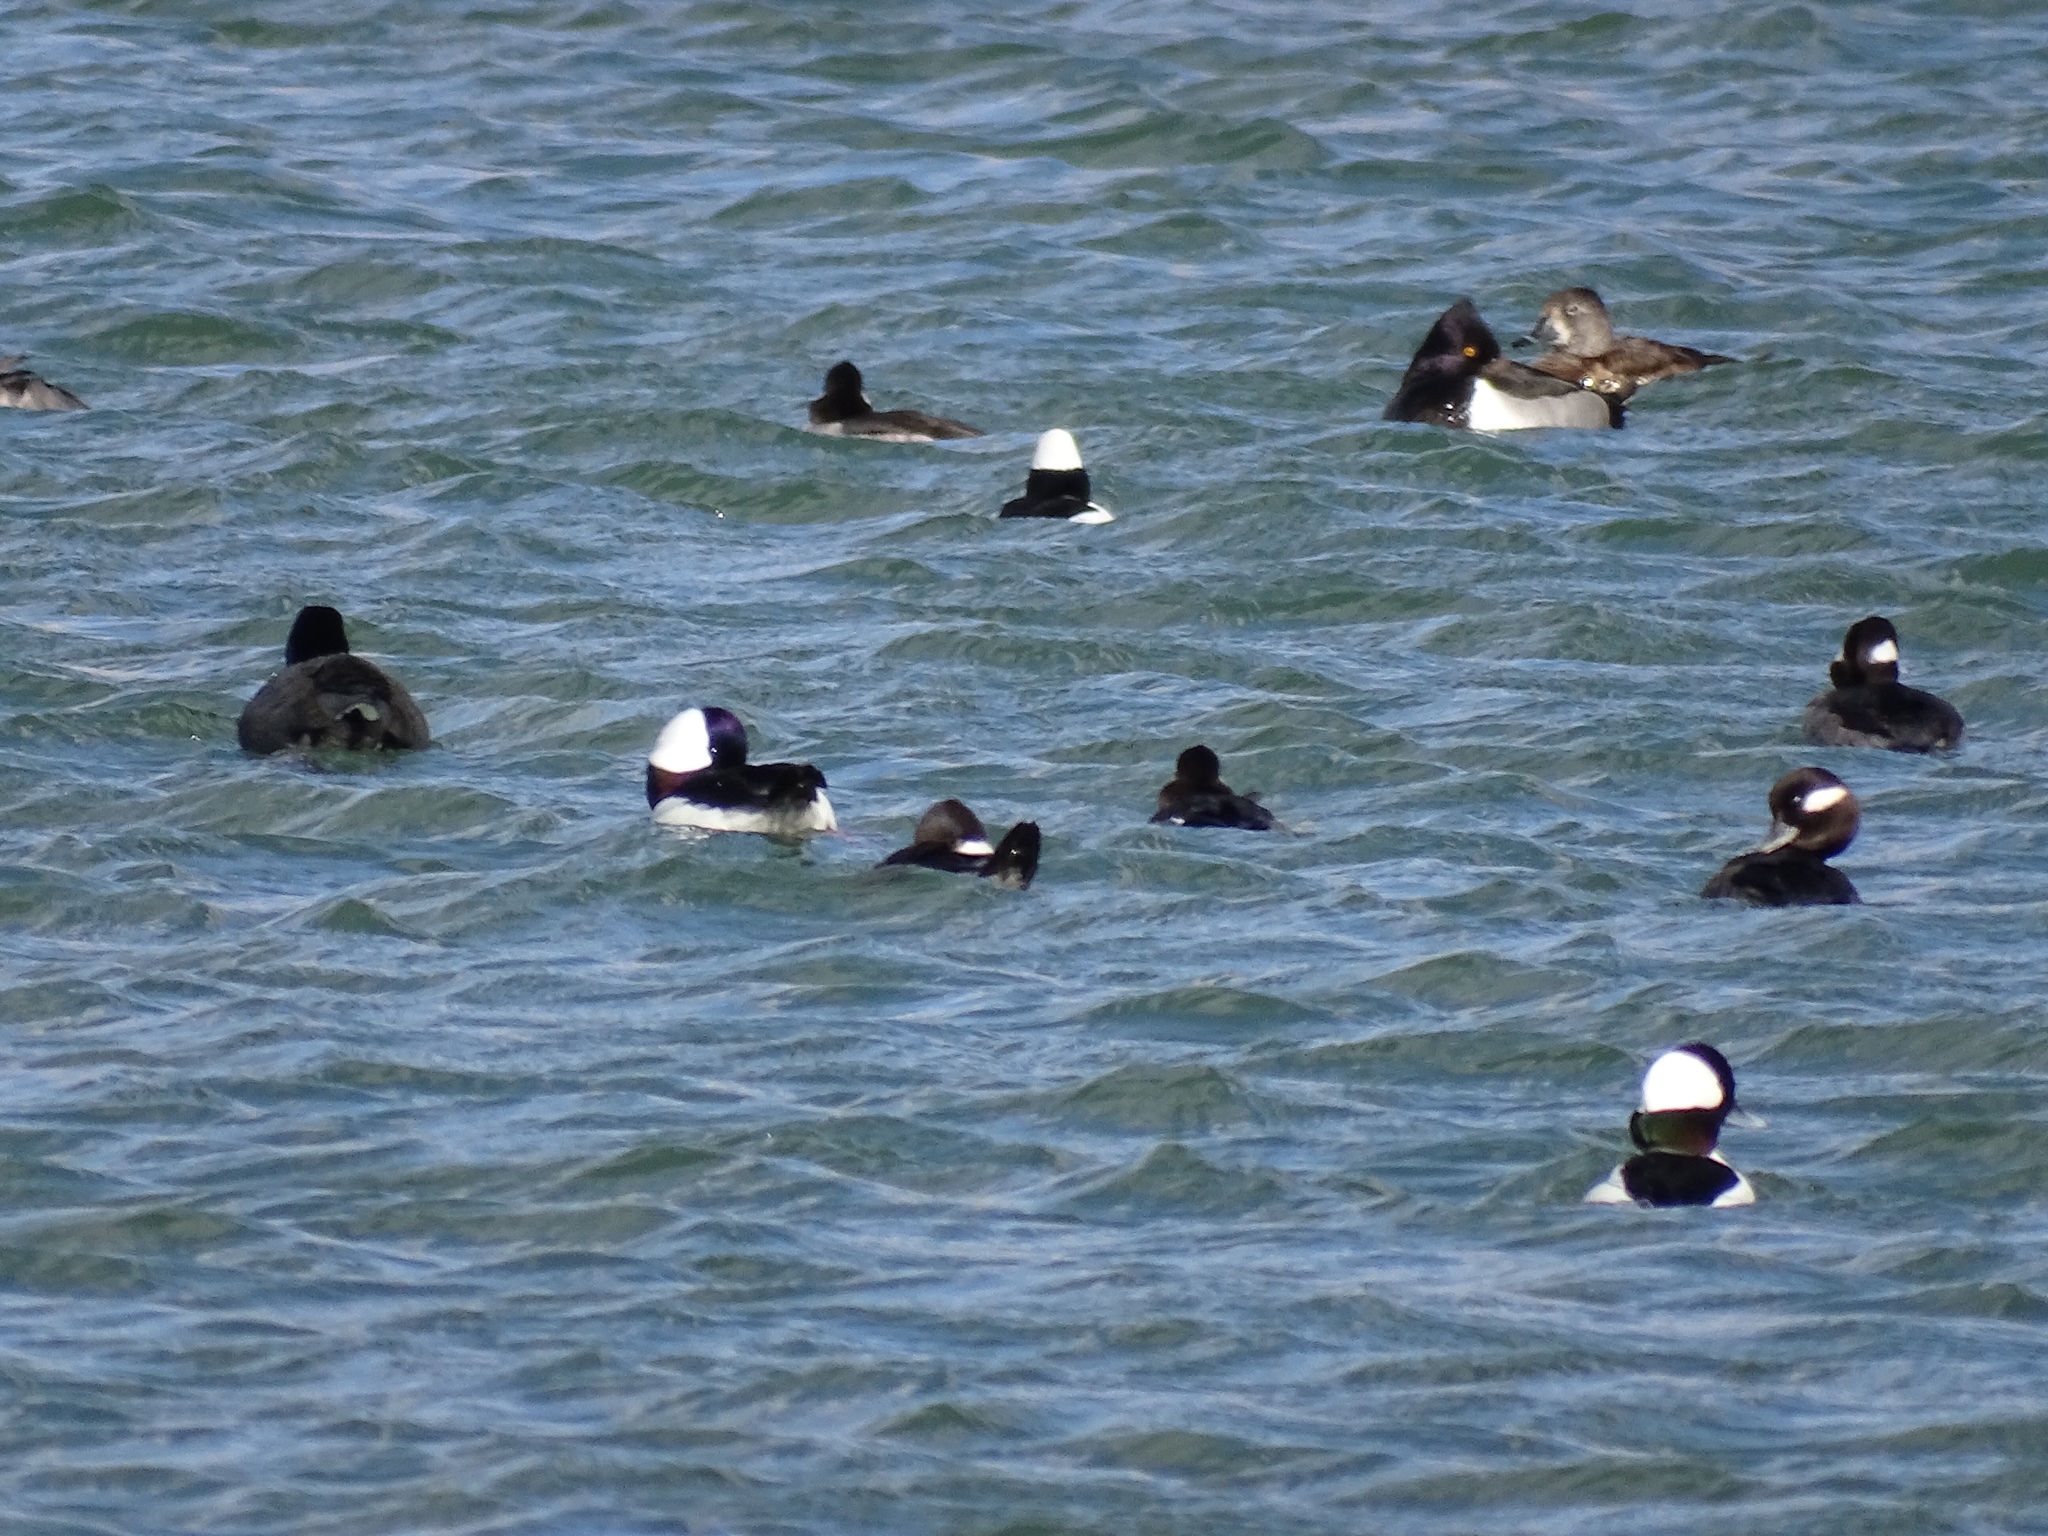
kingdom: Animalia
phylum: Chordata
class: Aves
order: Anseriformes
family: Anatidae
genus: Bucephala
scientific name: Bucephala albeola
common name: Bufflehead
